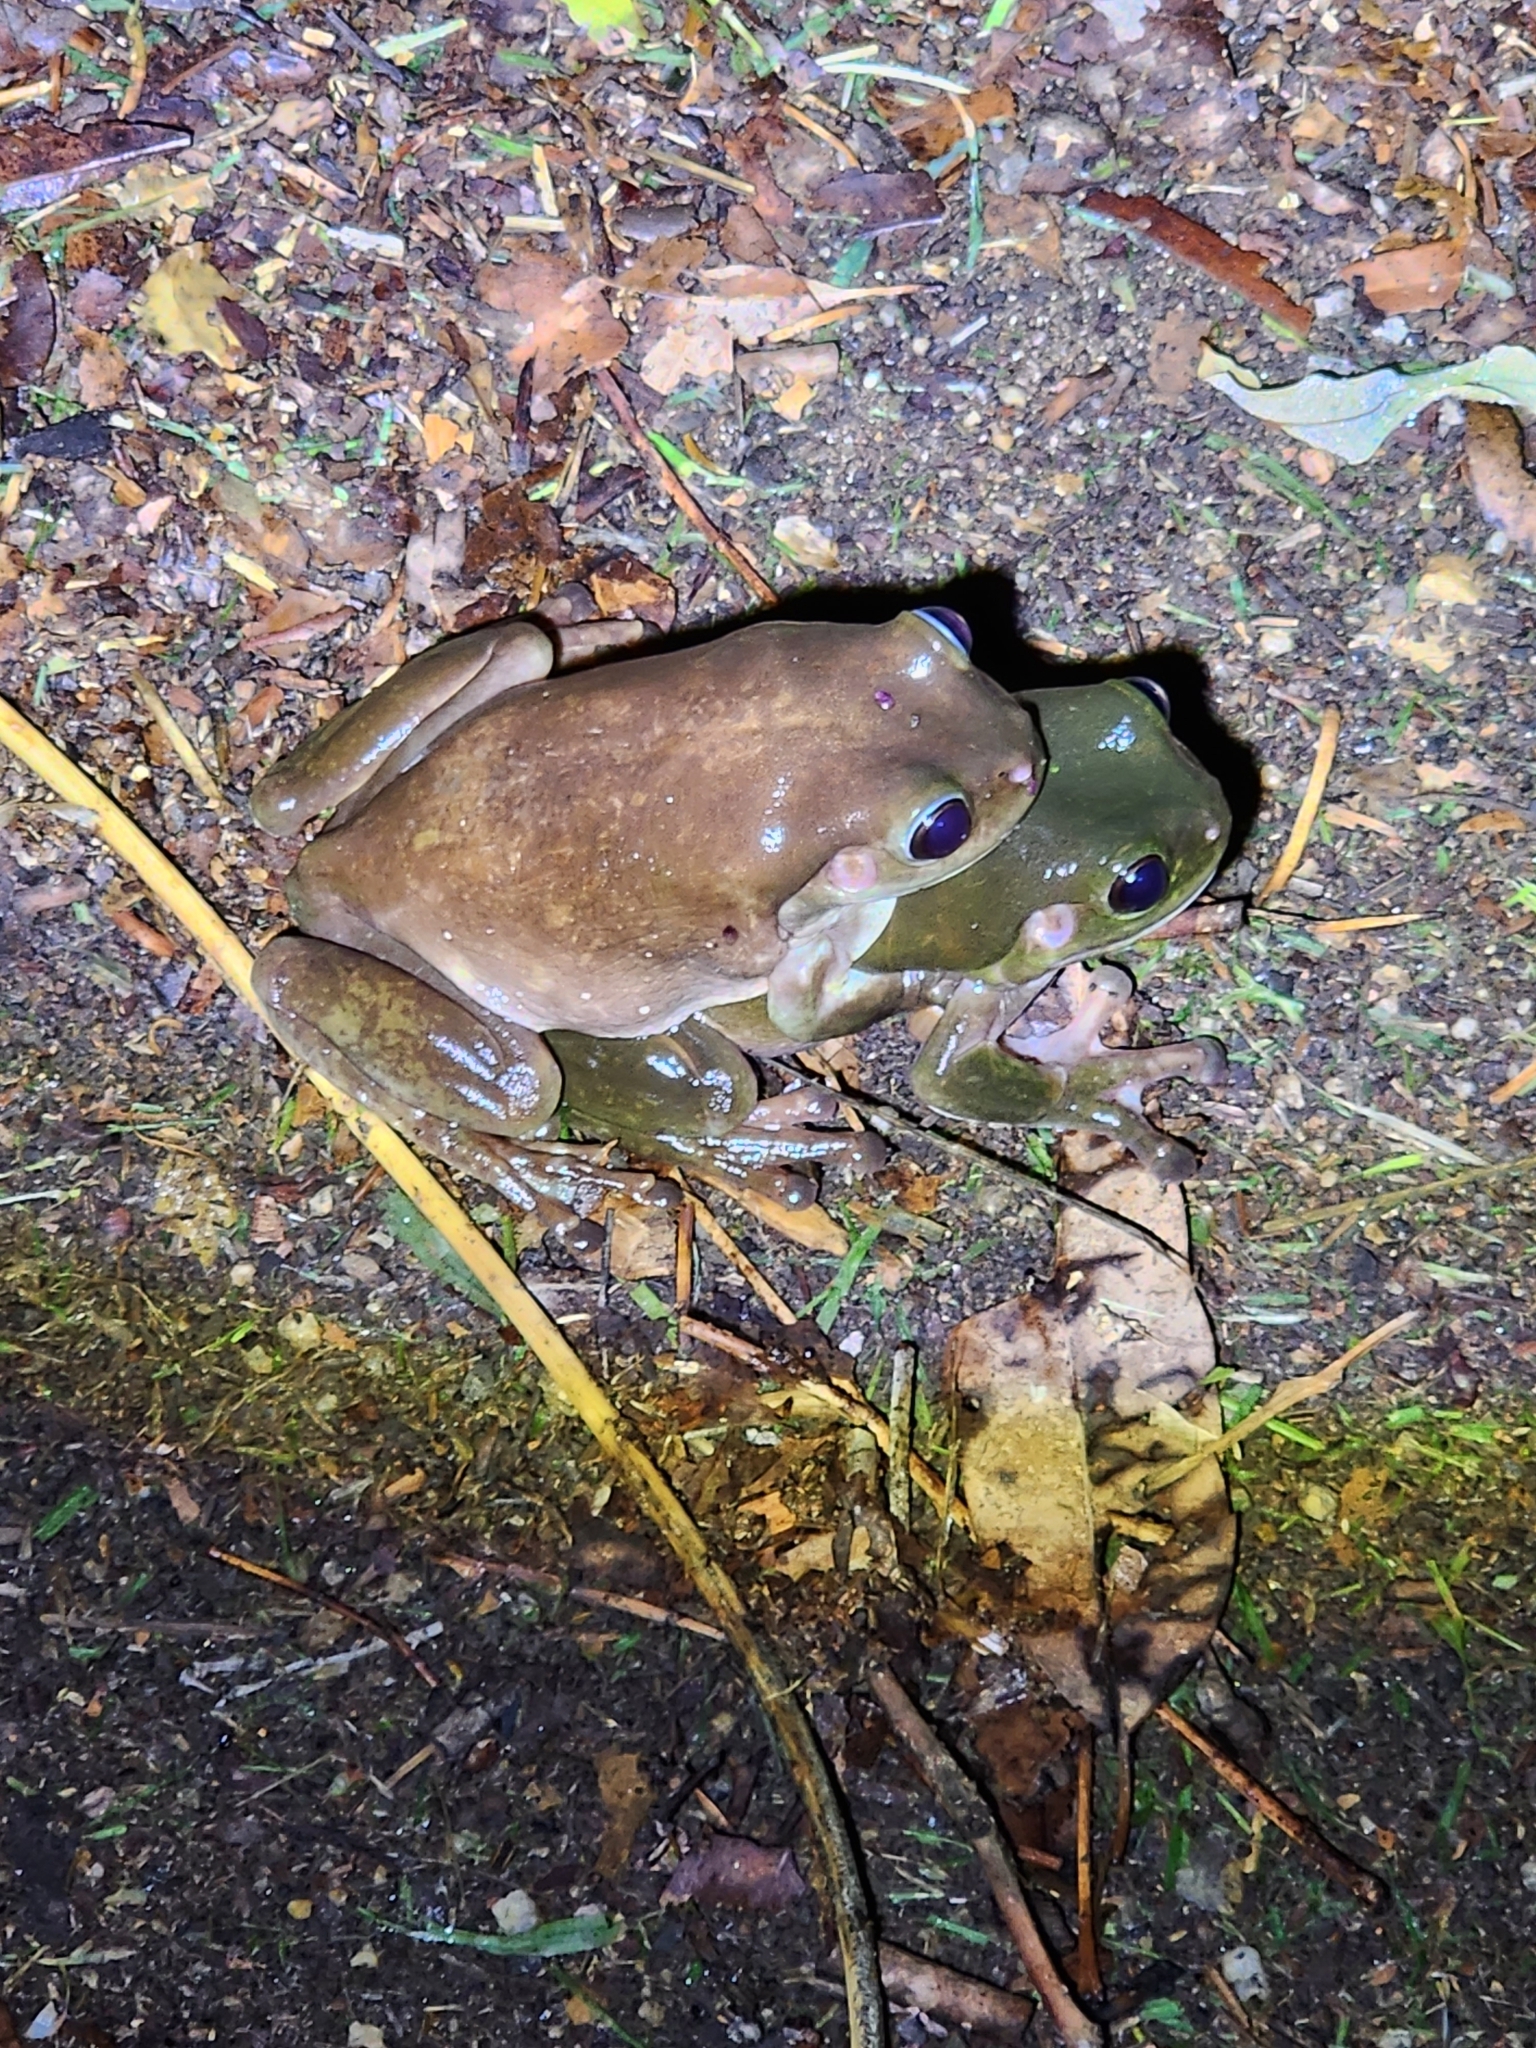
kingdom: Animalia
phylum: Chordata
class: Amphibia
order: Anura
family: Pelodryadidae
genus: Ranoidea
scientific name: Ranoidea caerulea
